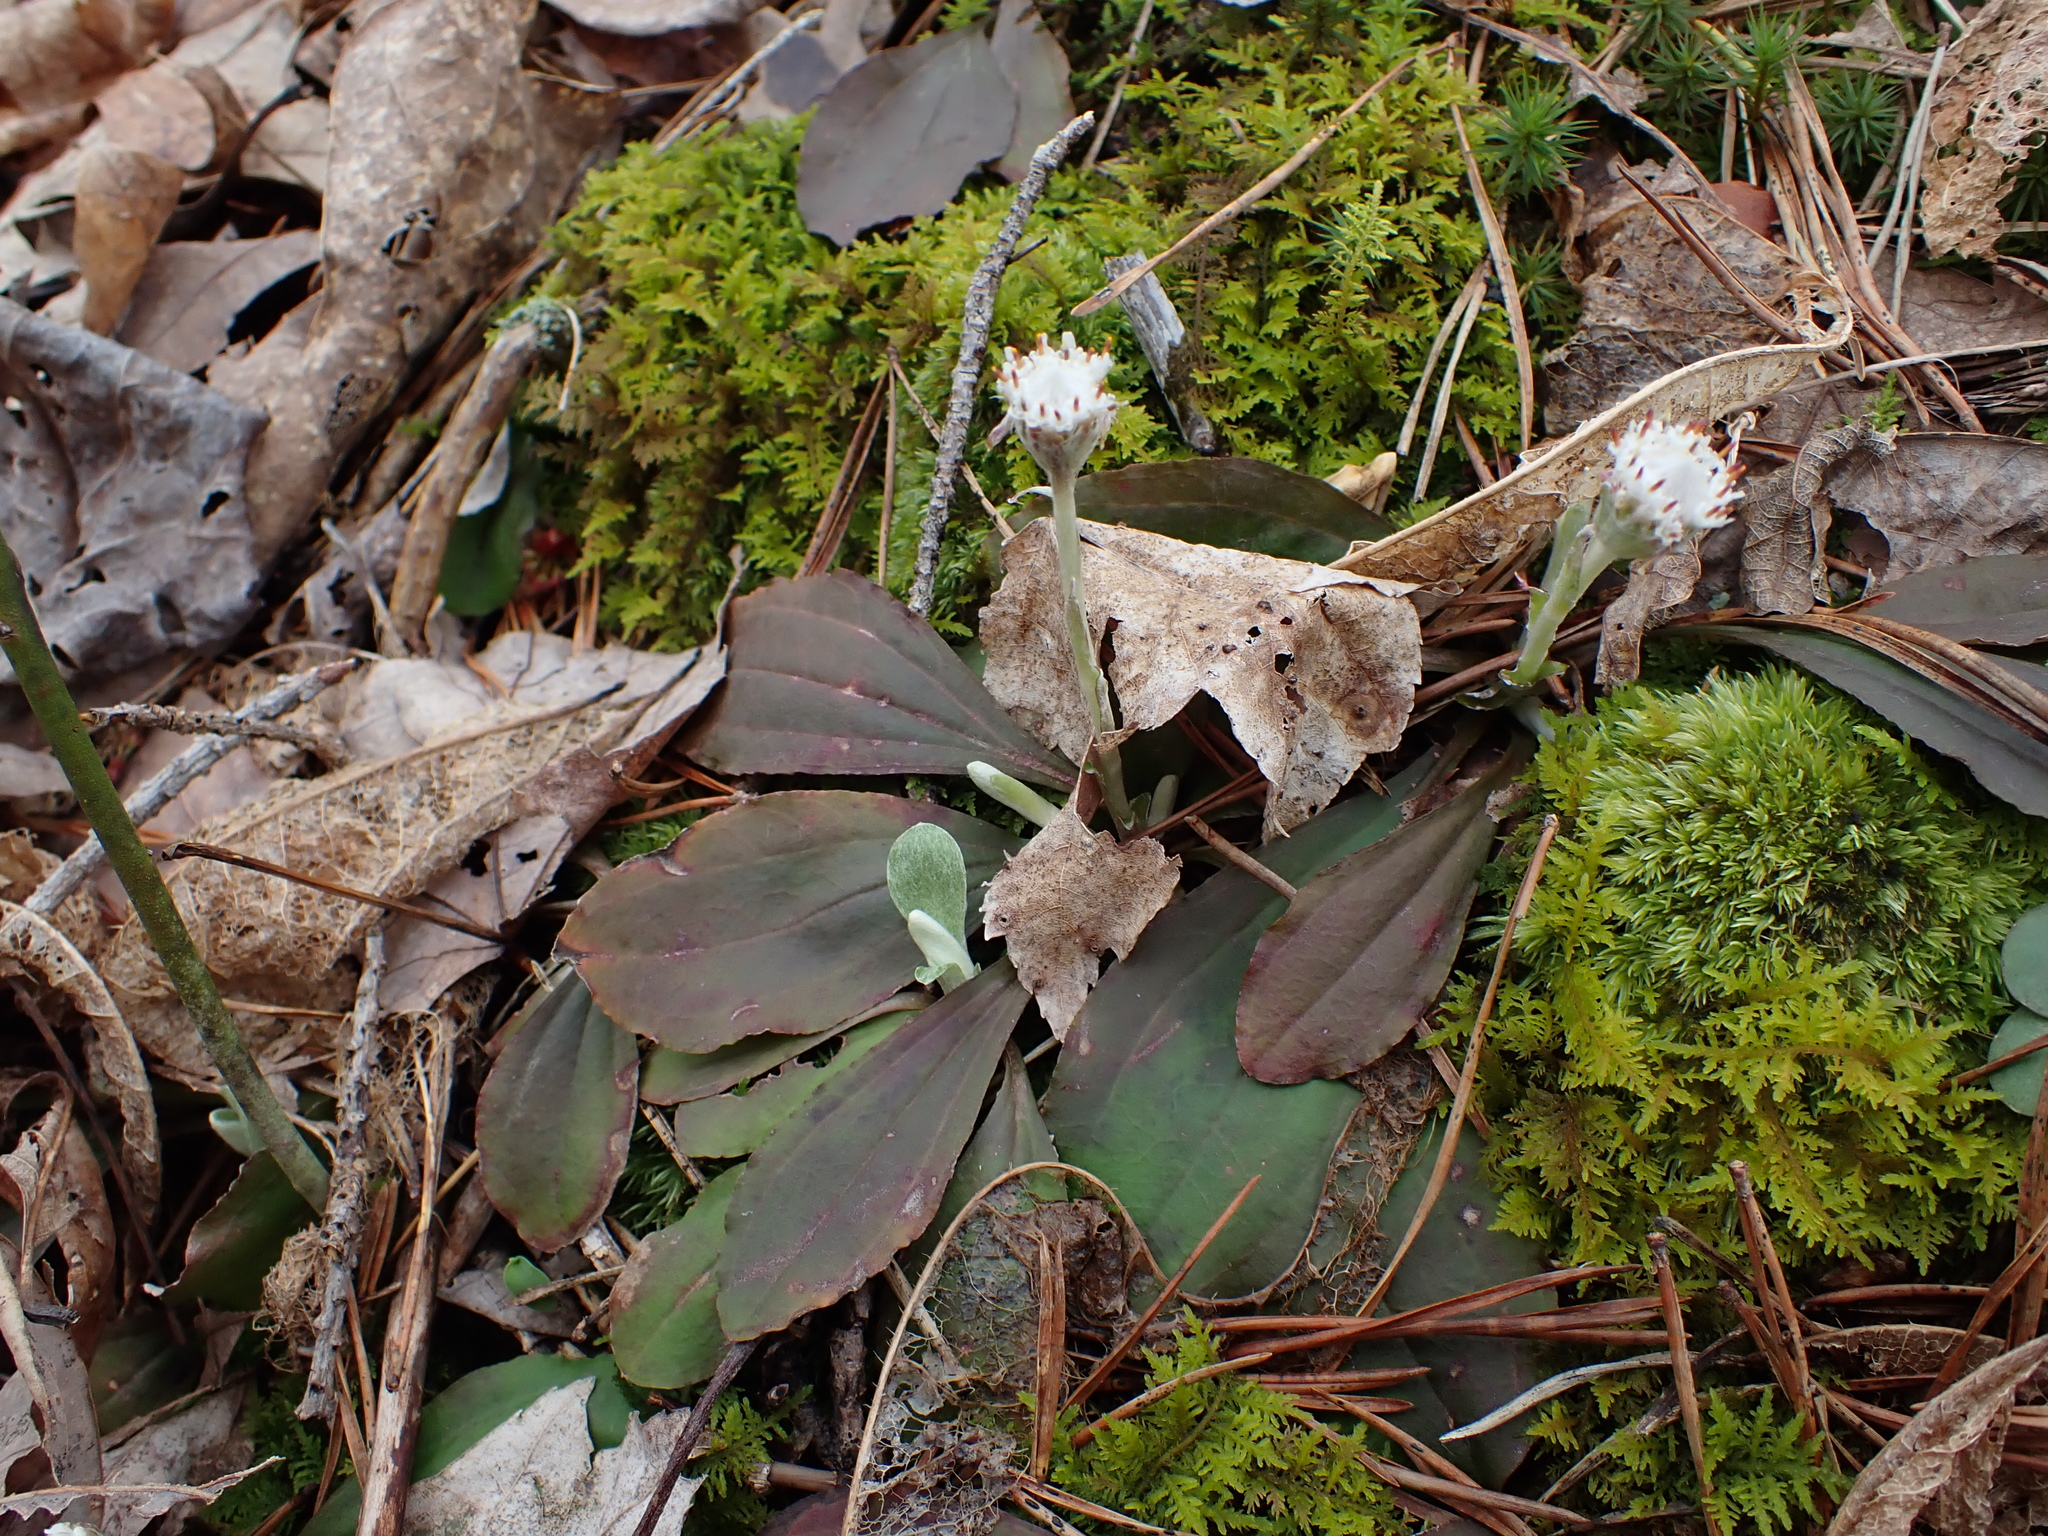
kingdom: Plantae
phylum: Tracheophyta
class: Magnoliopsida
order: Asterales
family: Asteraceae
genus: Antennaria
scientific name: Antennaria solitaria
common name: Single-head pussytoes
